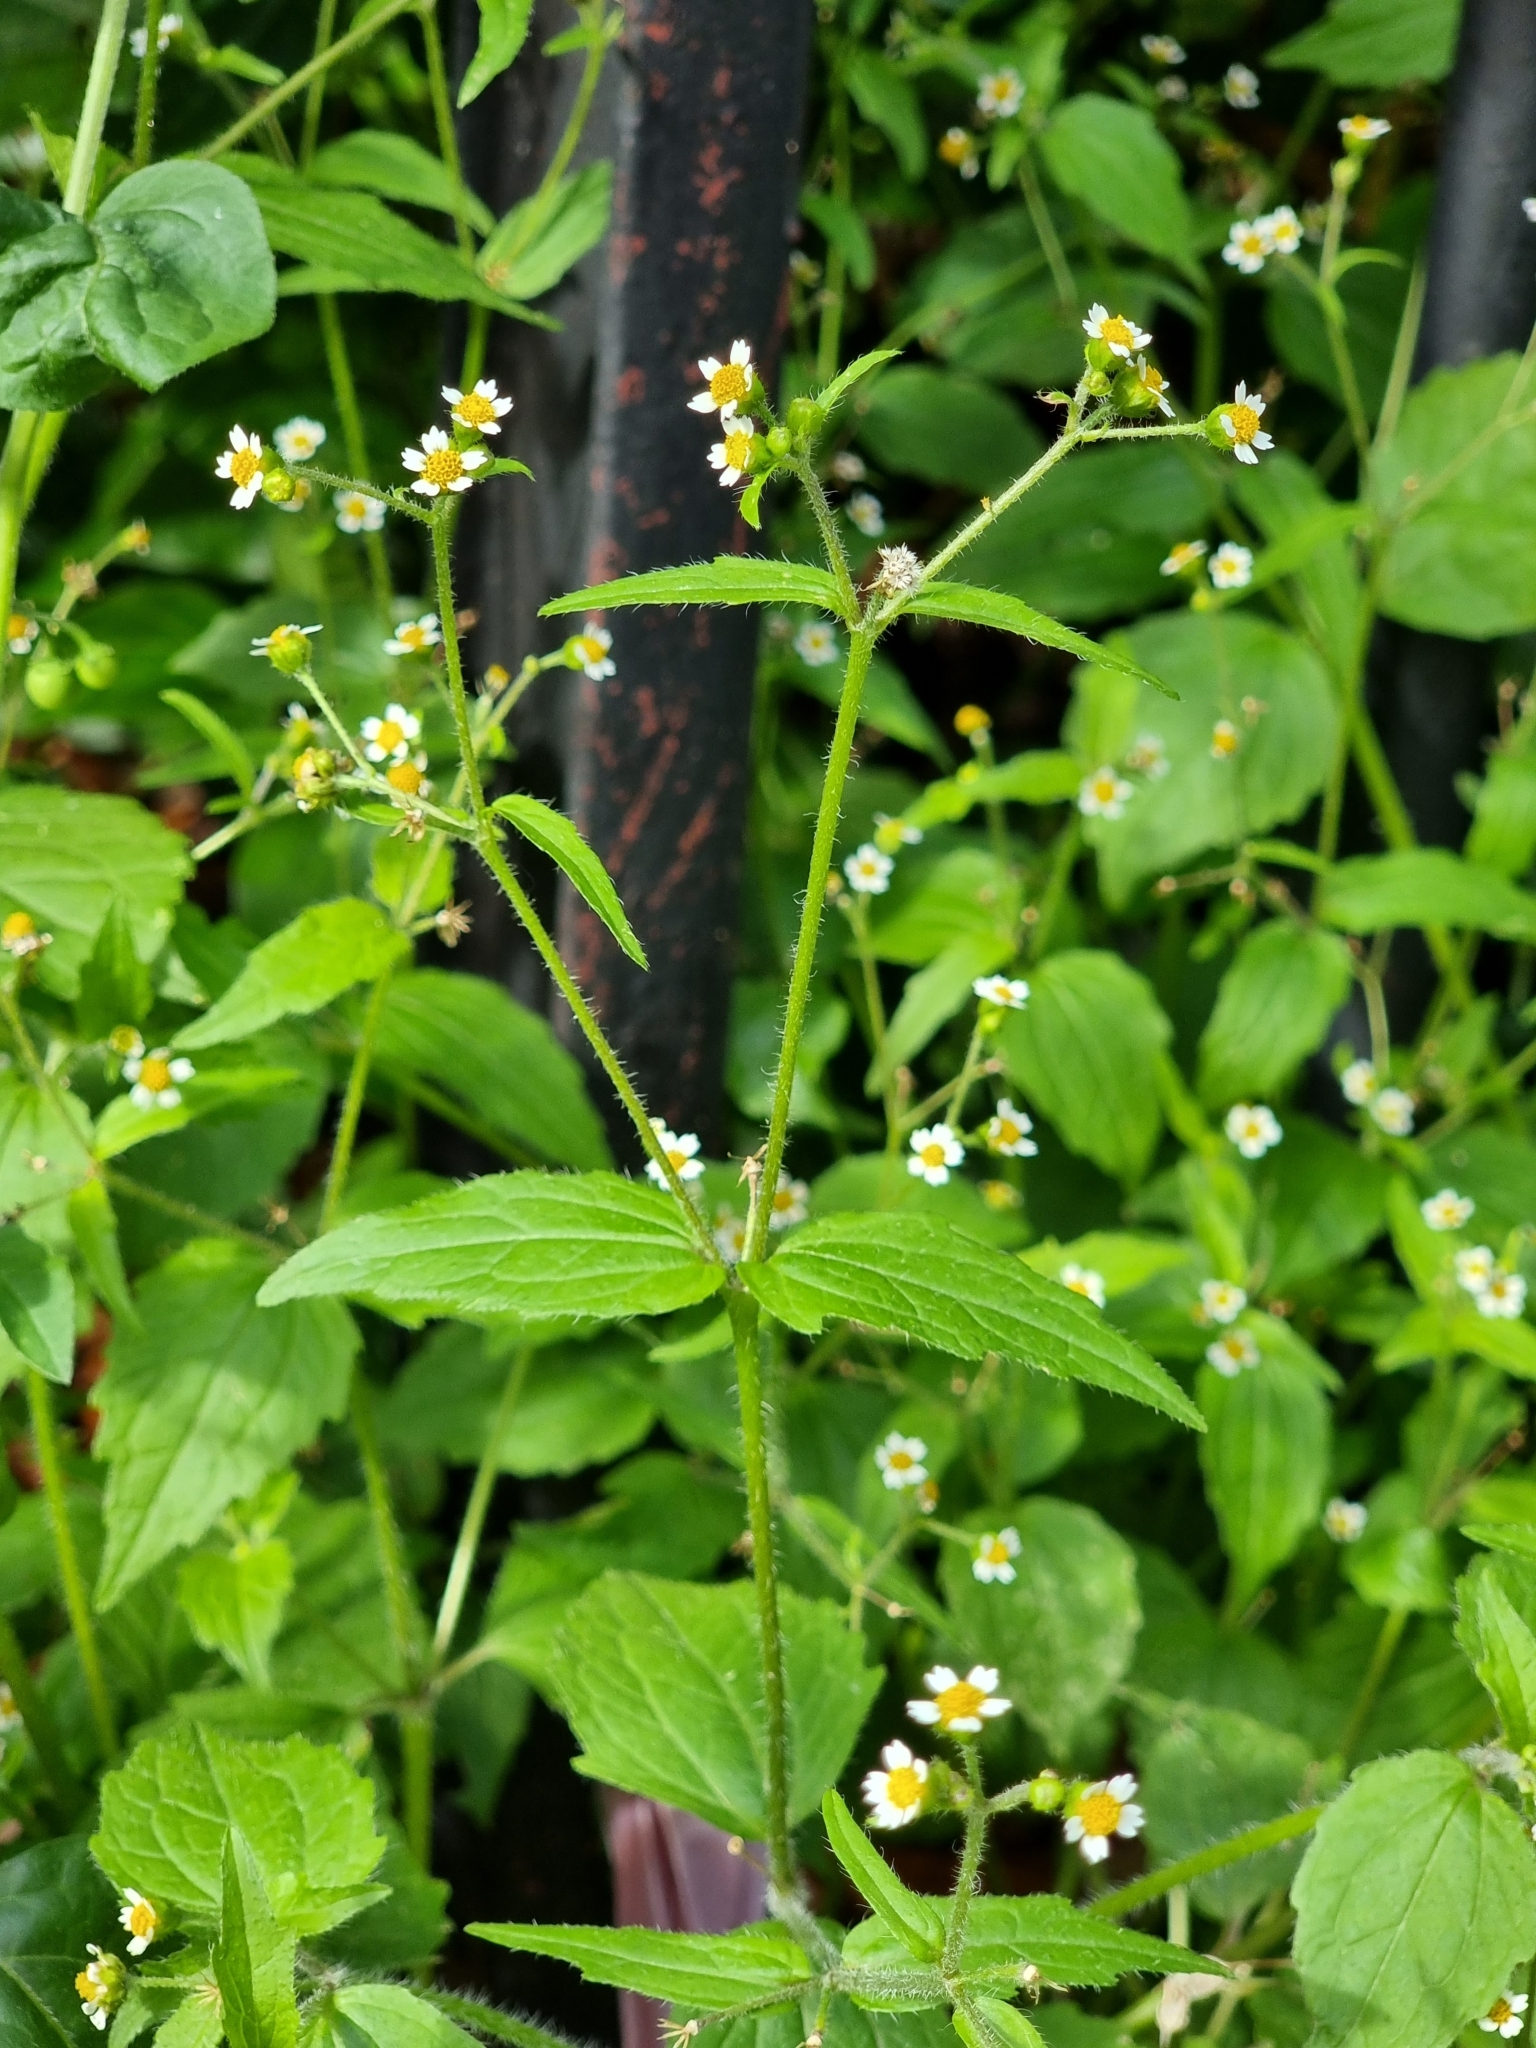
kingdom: Plantae
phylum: Tracheophyta
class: Magnoliopsida
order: Asterales
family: Asteraceae
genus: Galinsoga
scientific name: Galinsoga quadriradiata
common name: Shaggy soldier
